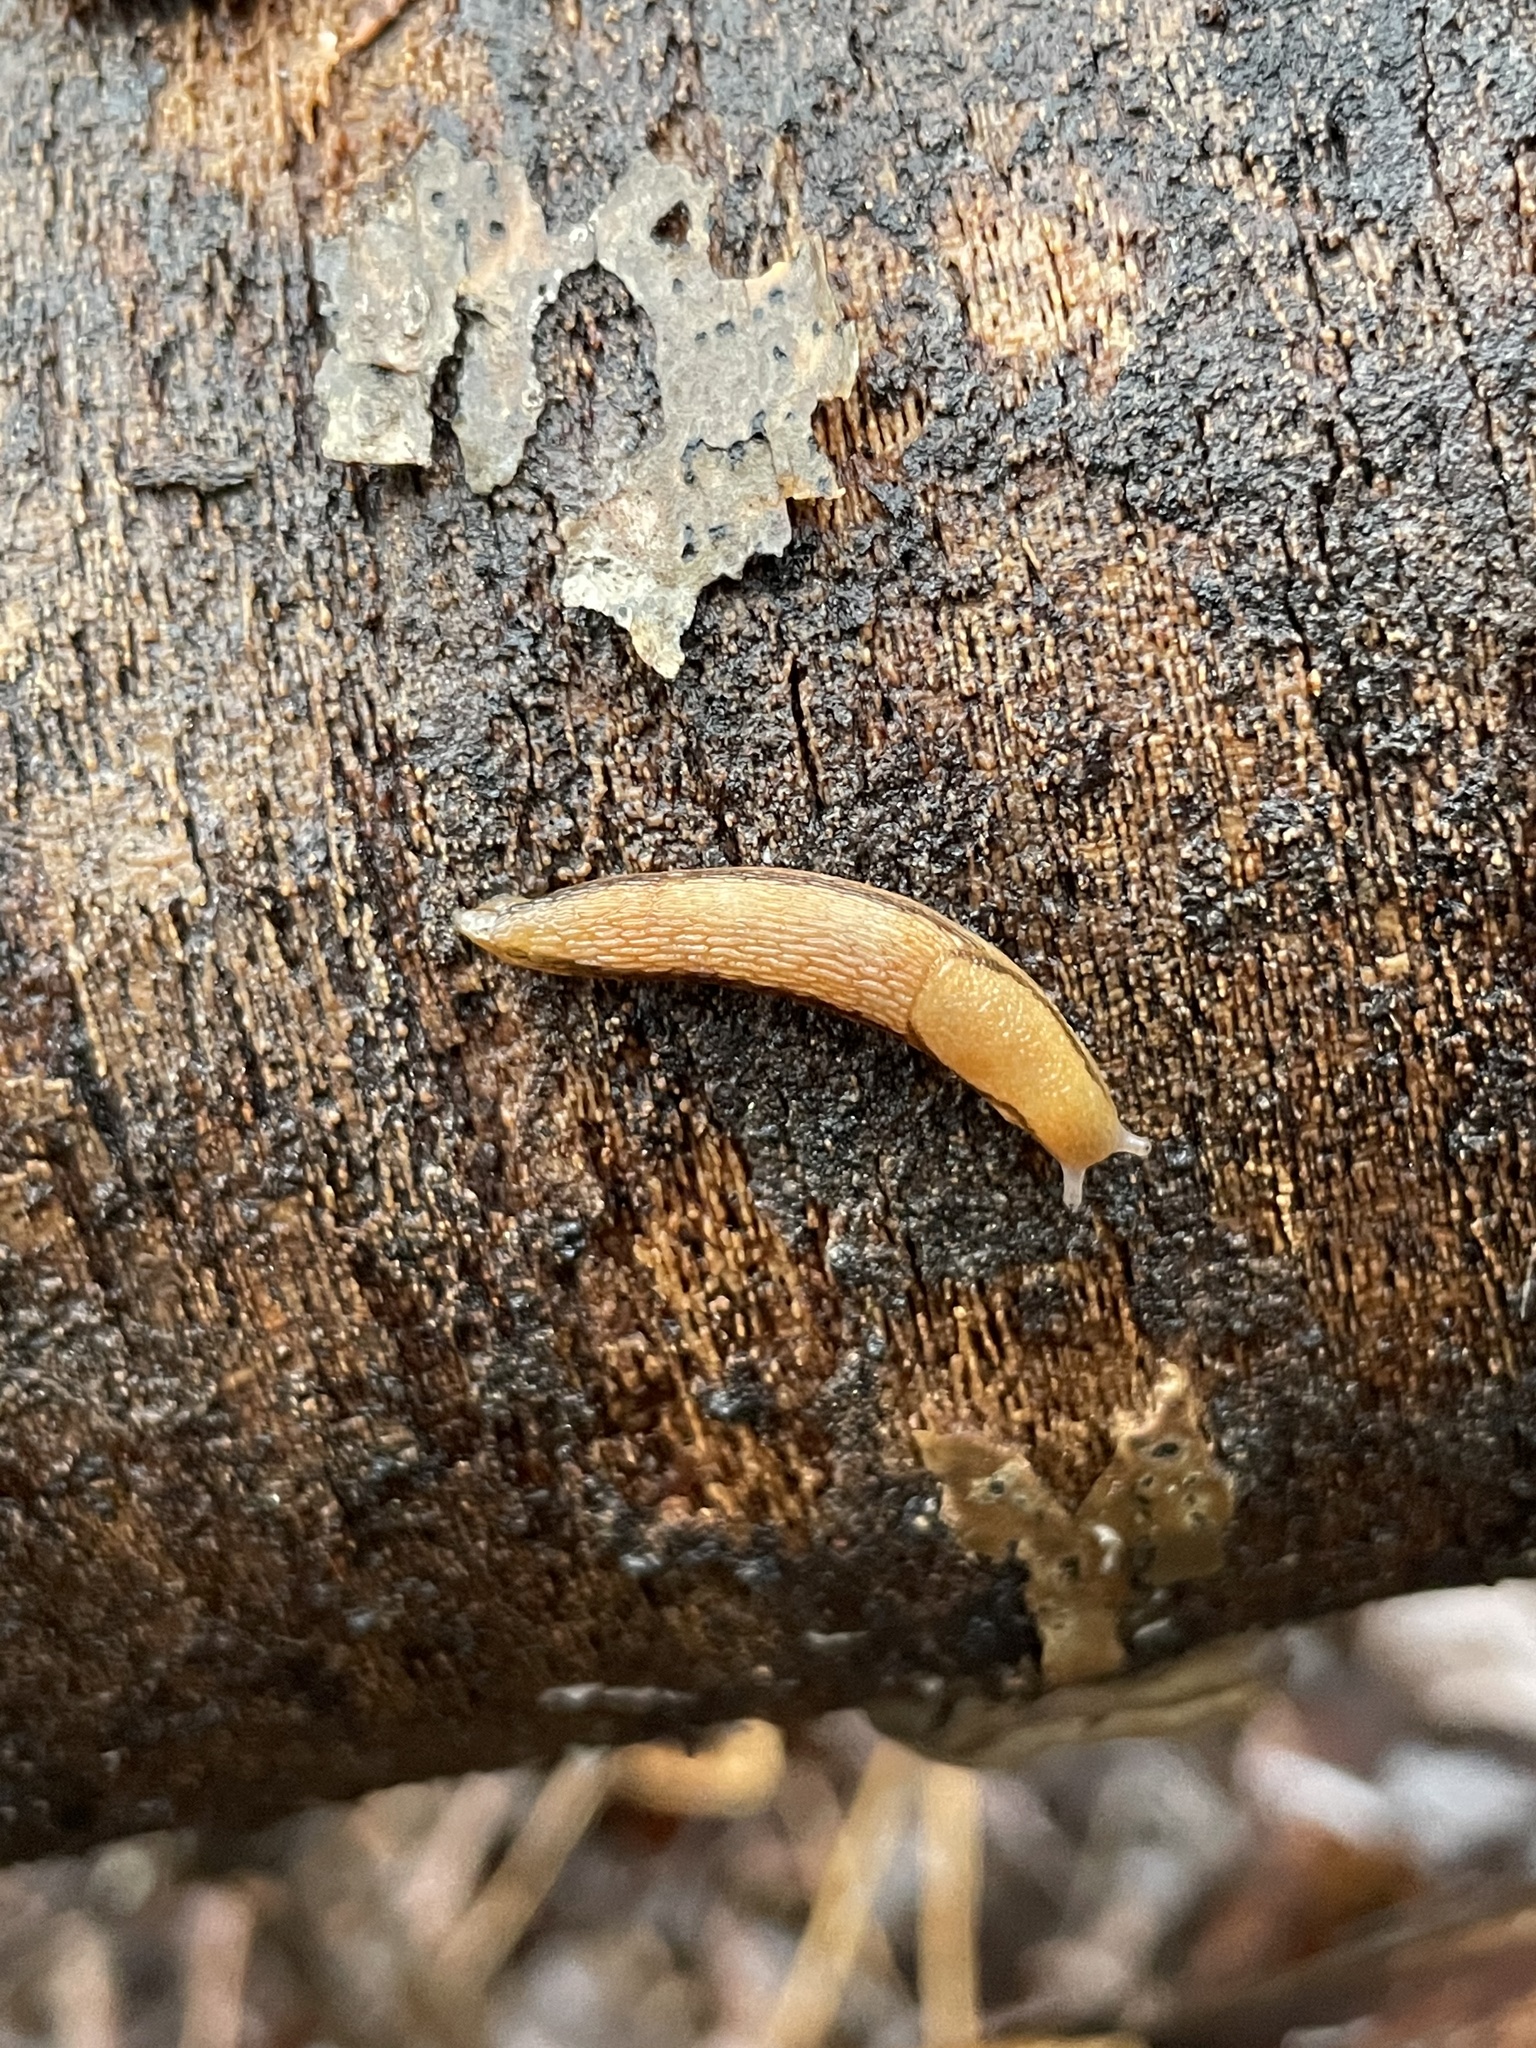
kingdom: Animalia
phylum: Mollusca
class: Gastropoda
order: Stylommatophora
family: Arionidae
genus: Arion
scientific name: Arion subfuscus
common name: Dusky arion
